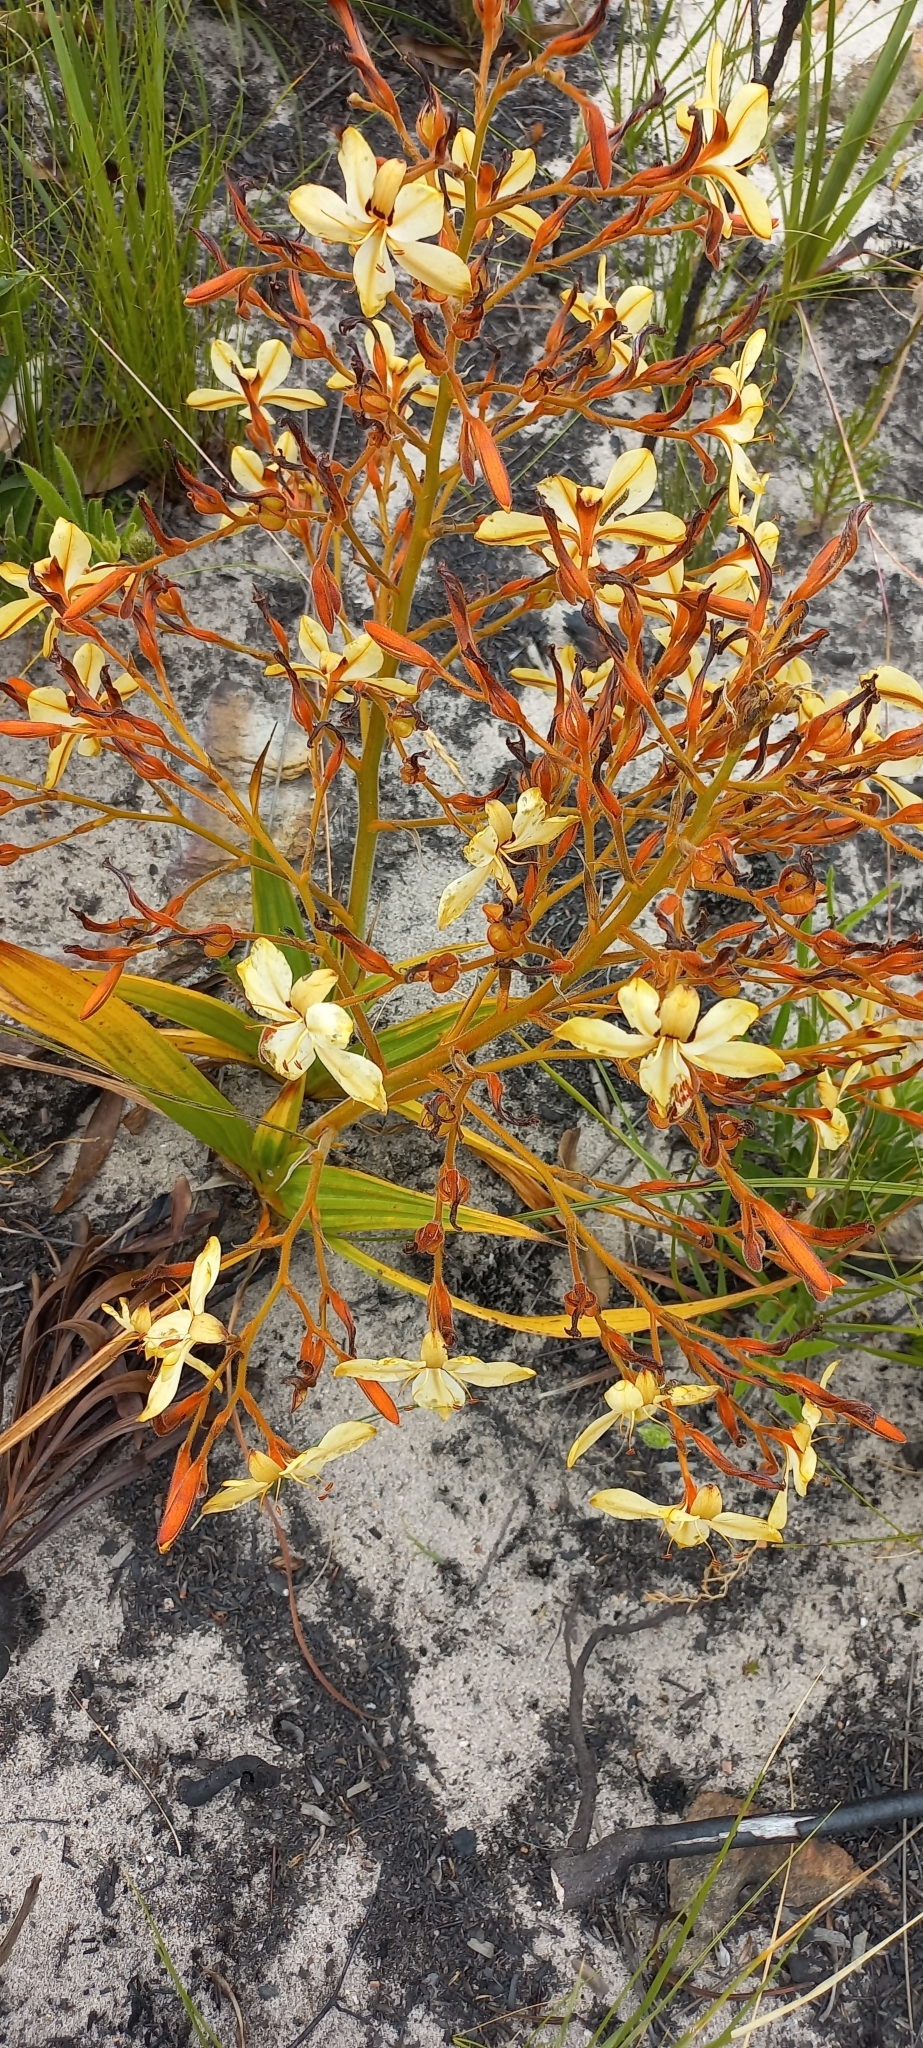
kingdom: Plantae
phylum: Tracheophyta
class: Liliopsida
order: Commelinales
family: Haemodoraceae
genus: Wachendorfia
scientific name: Wachendorfia paniculata
